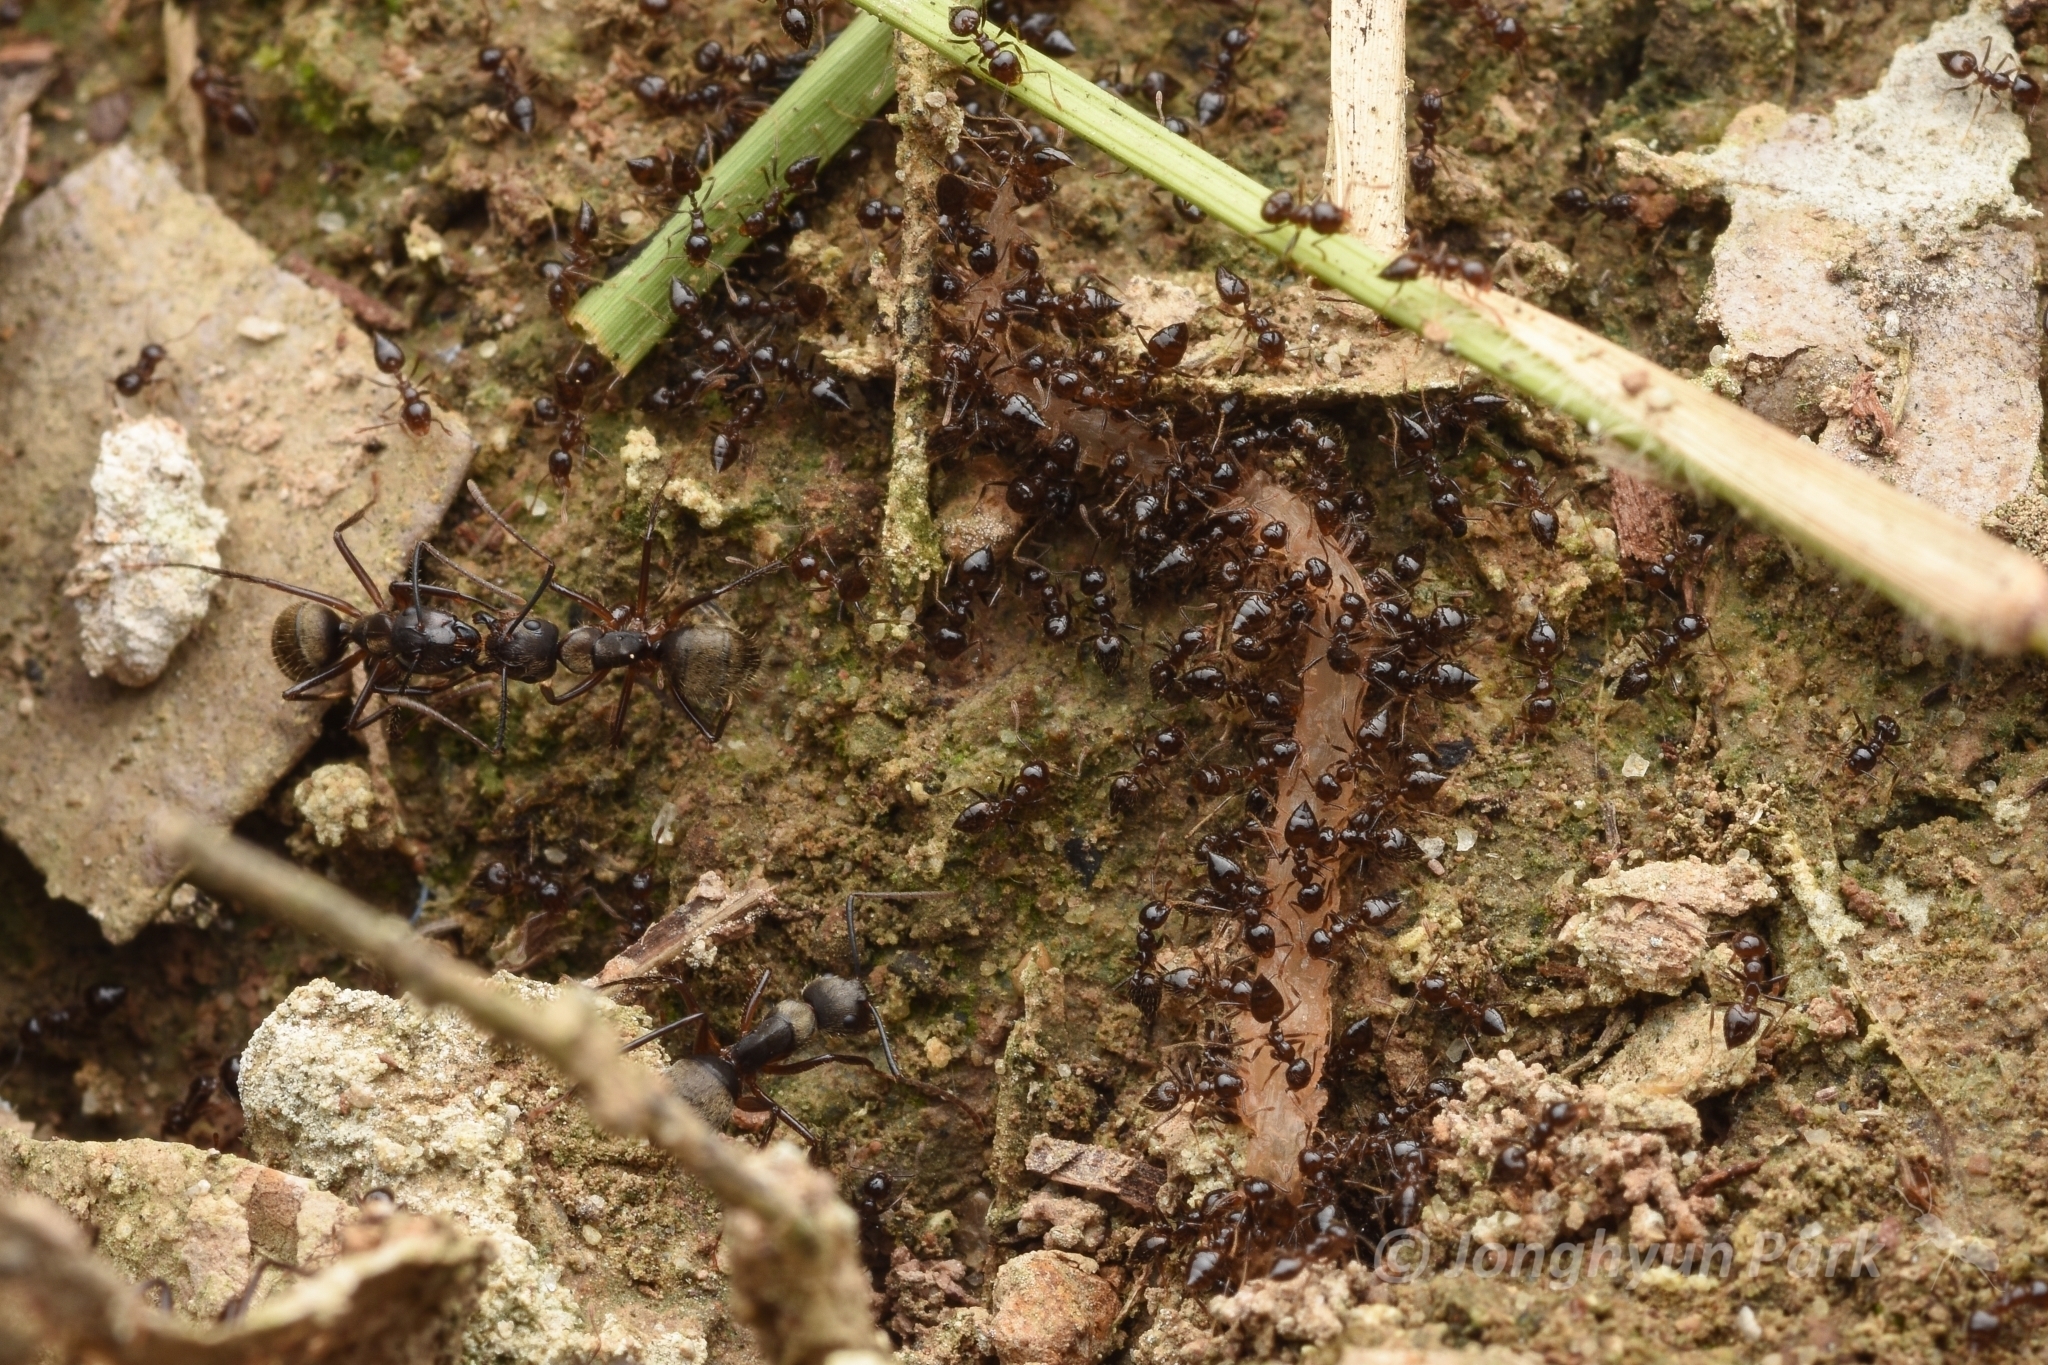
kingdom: Animalia
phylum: Arthropoda
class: Insecta
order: Hymenoptera
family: Formicidae
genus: Camponotus
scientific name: Camponotus femoratus
